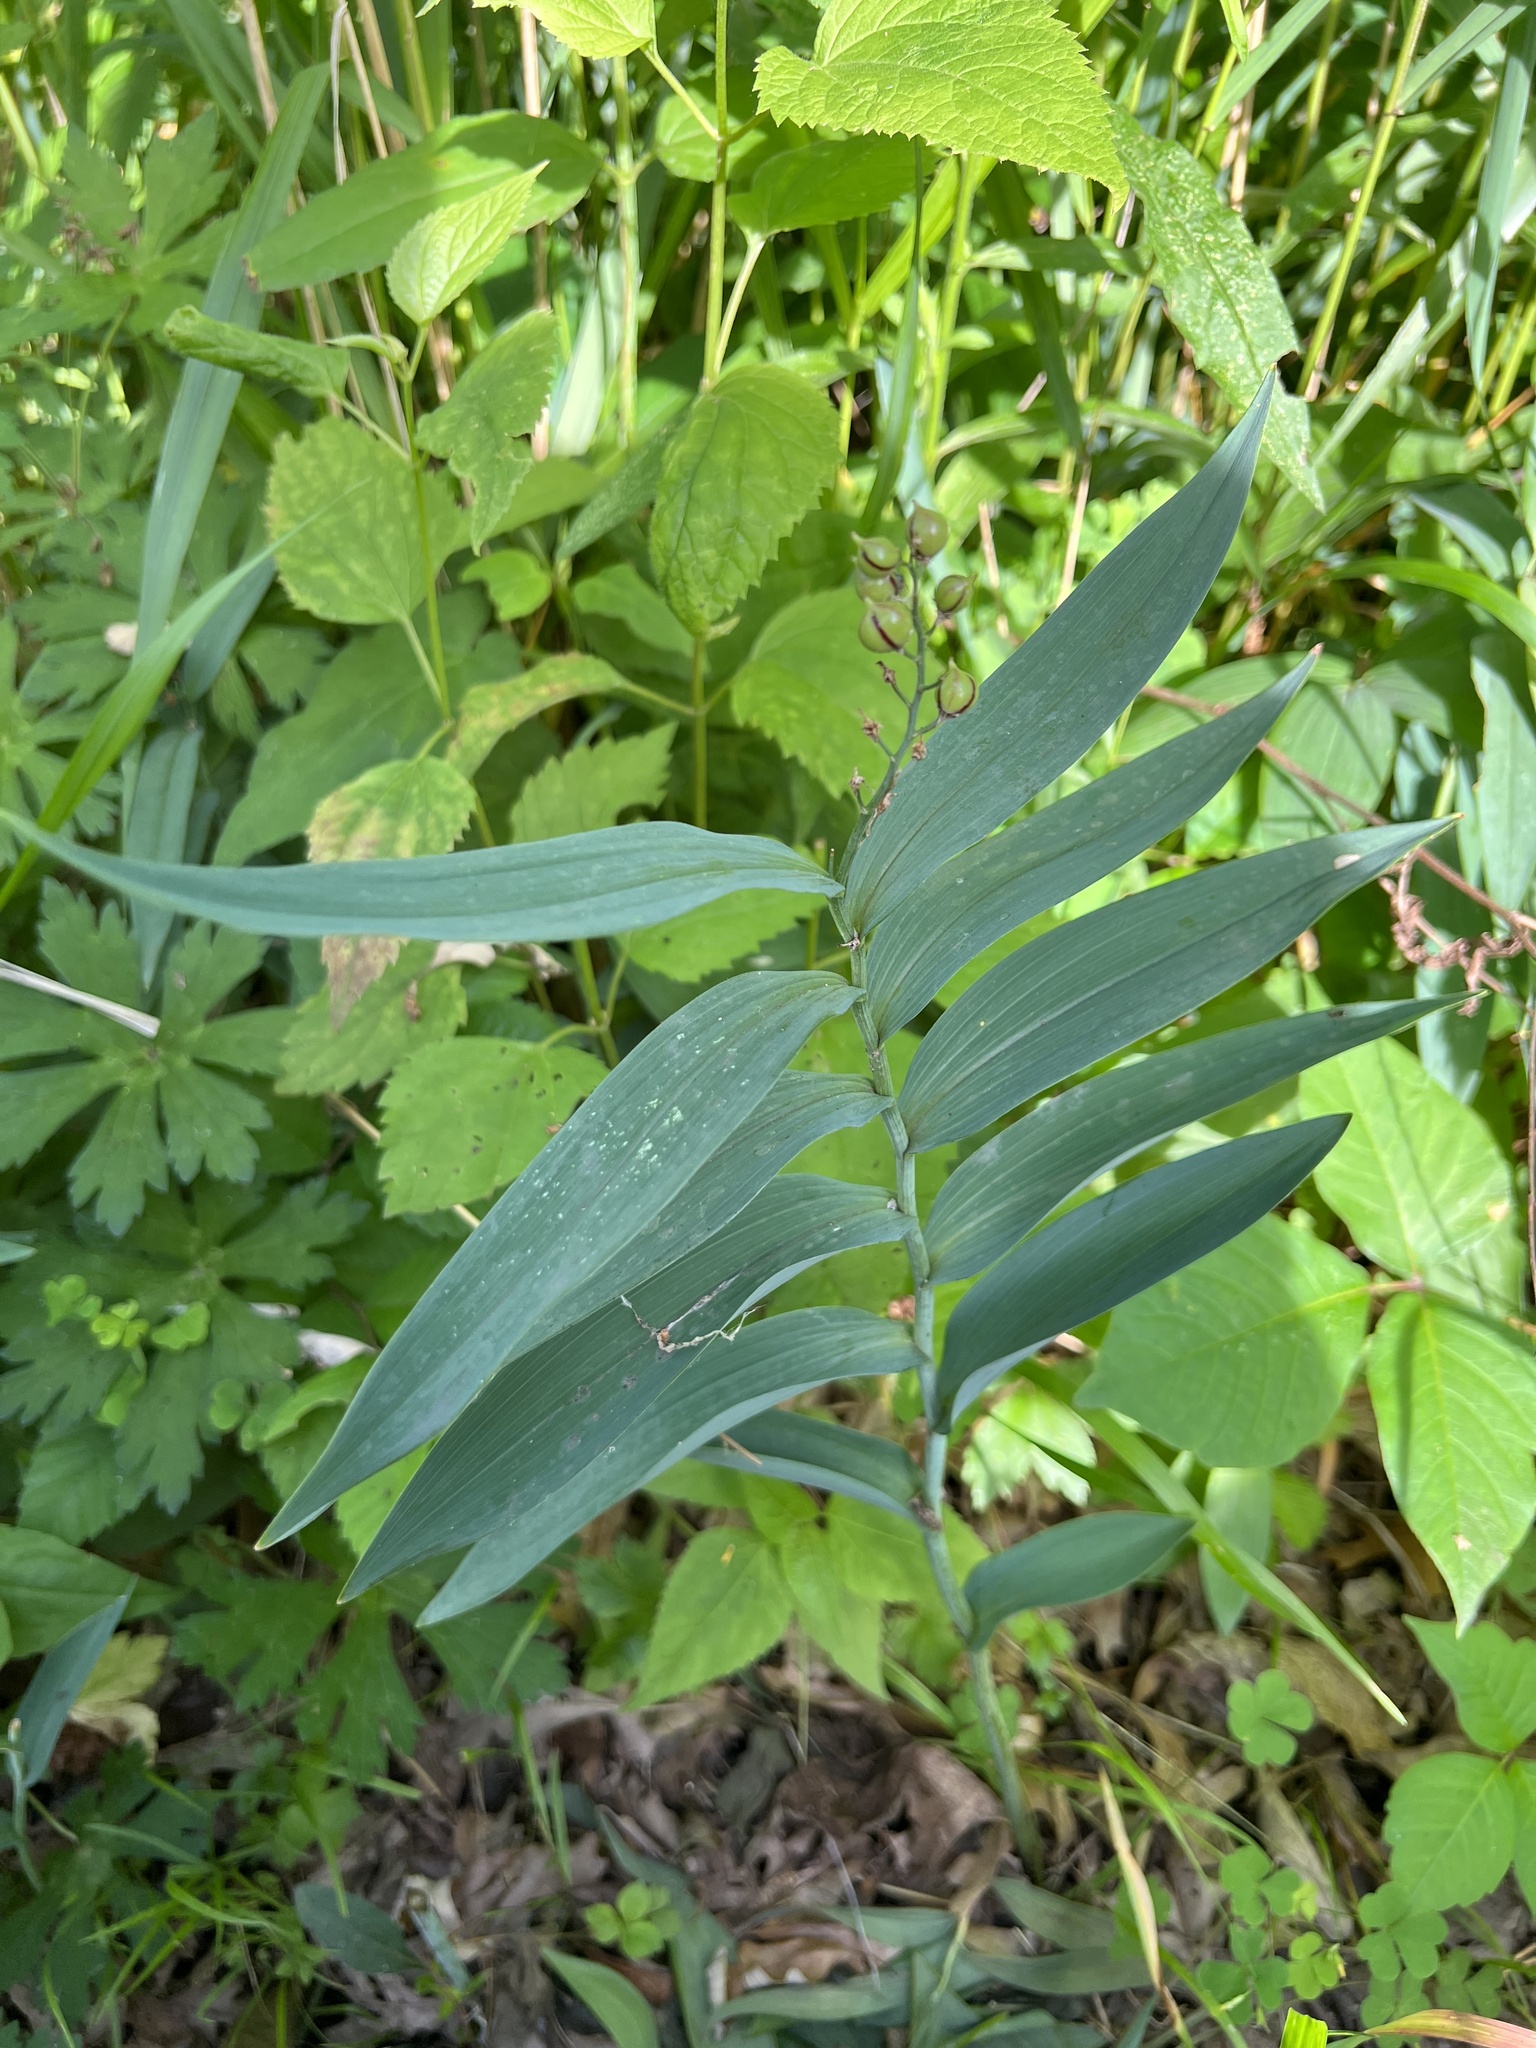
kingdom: Plantae
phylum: Tracheophyta
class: Liliopsida
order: Asparagales
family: Asparagaceae
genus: Maianthemum
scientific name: Maianthemum stellatum
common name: Little false solomon's seal
